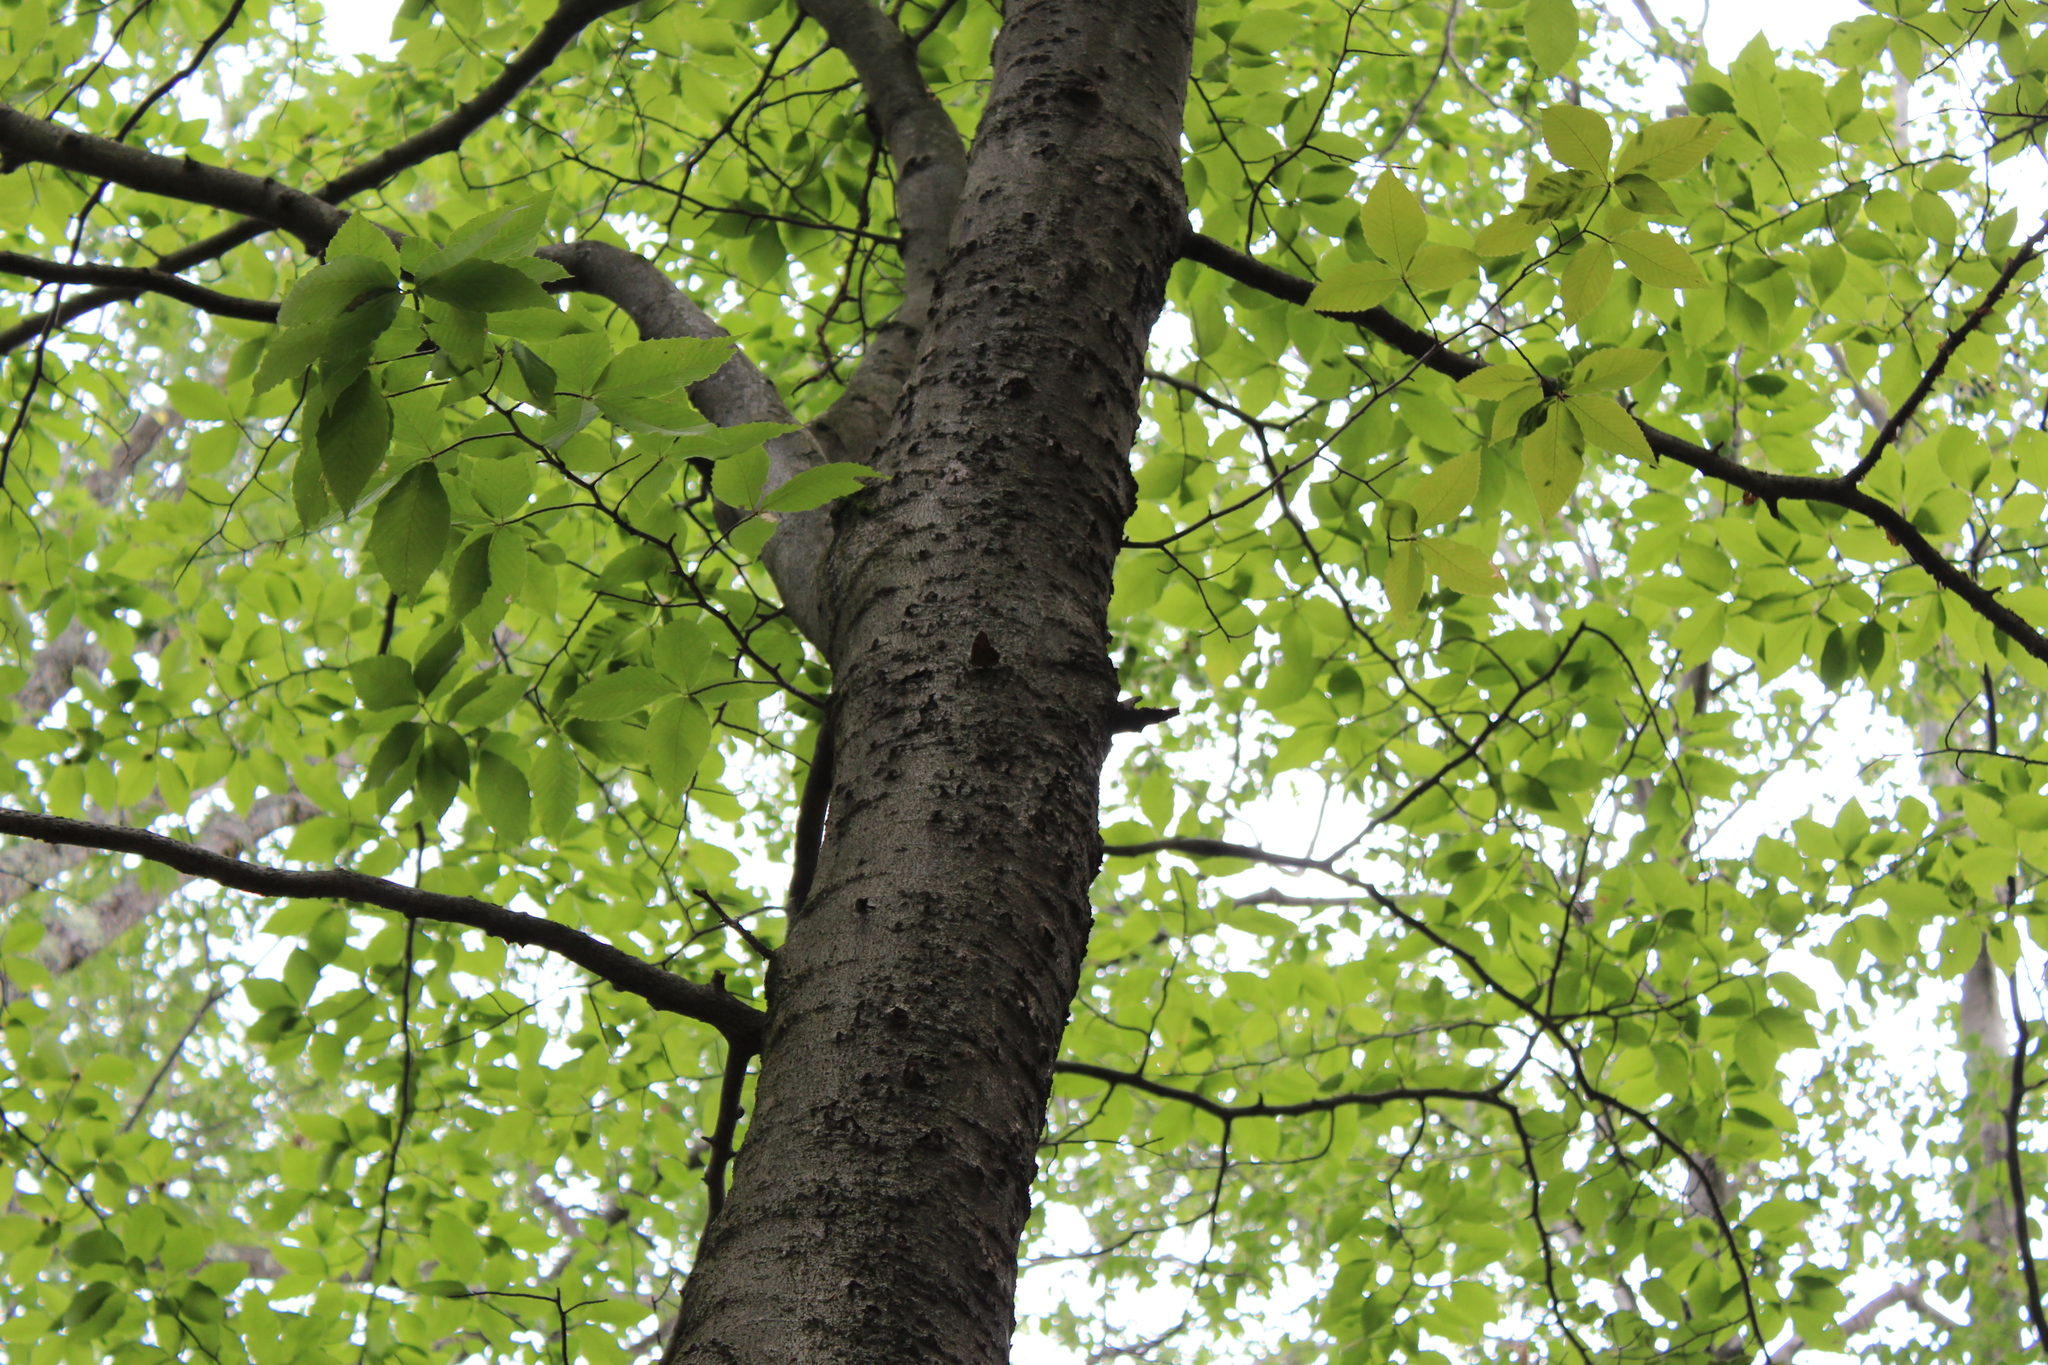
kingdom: Plantae
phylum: Tracheophyta
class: Magnoliopsida
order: Fagales
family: Fagaceae
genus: Fagus
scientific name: Fagus grandifolia
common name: American beech
